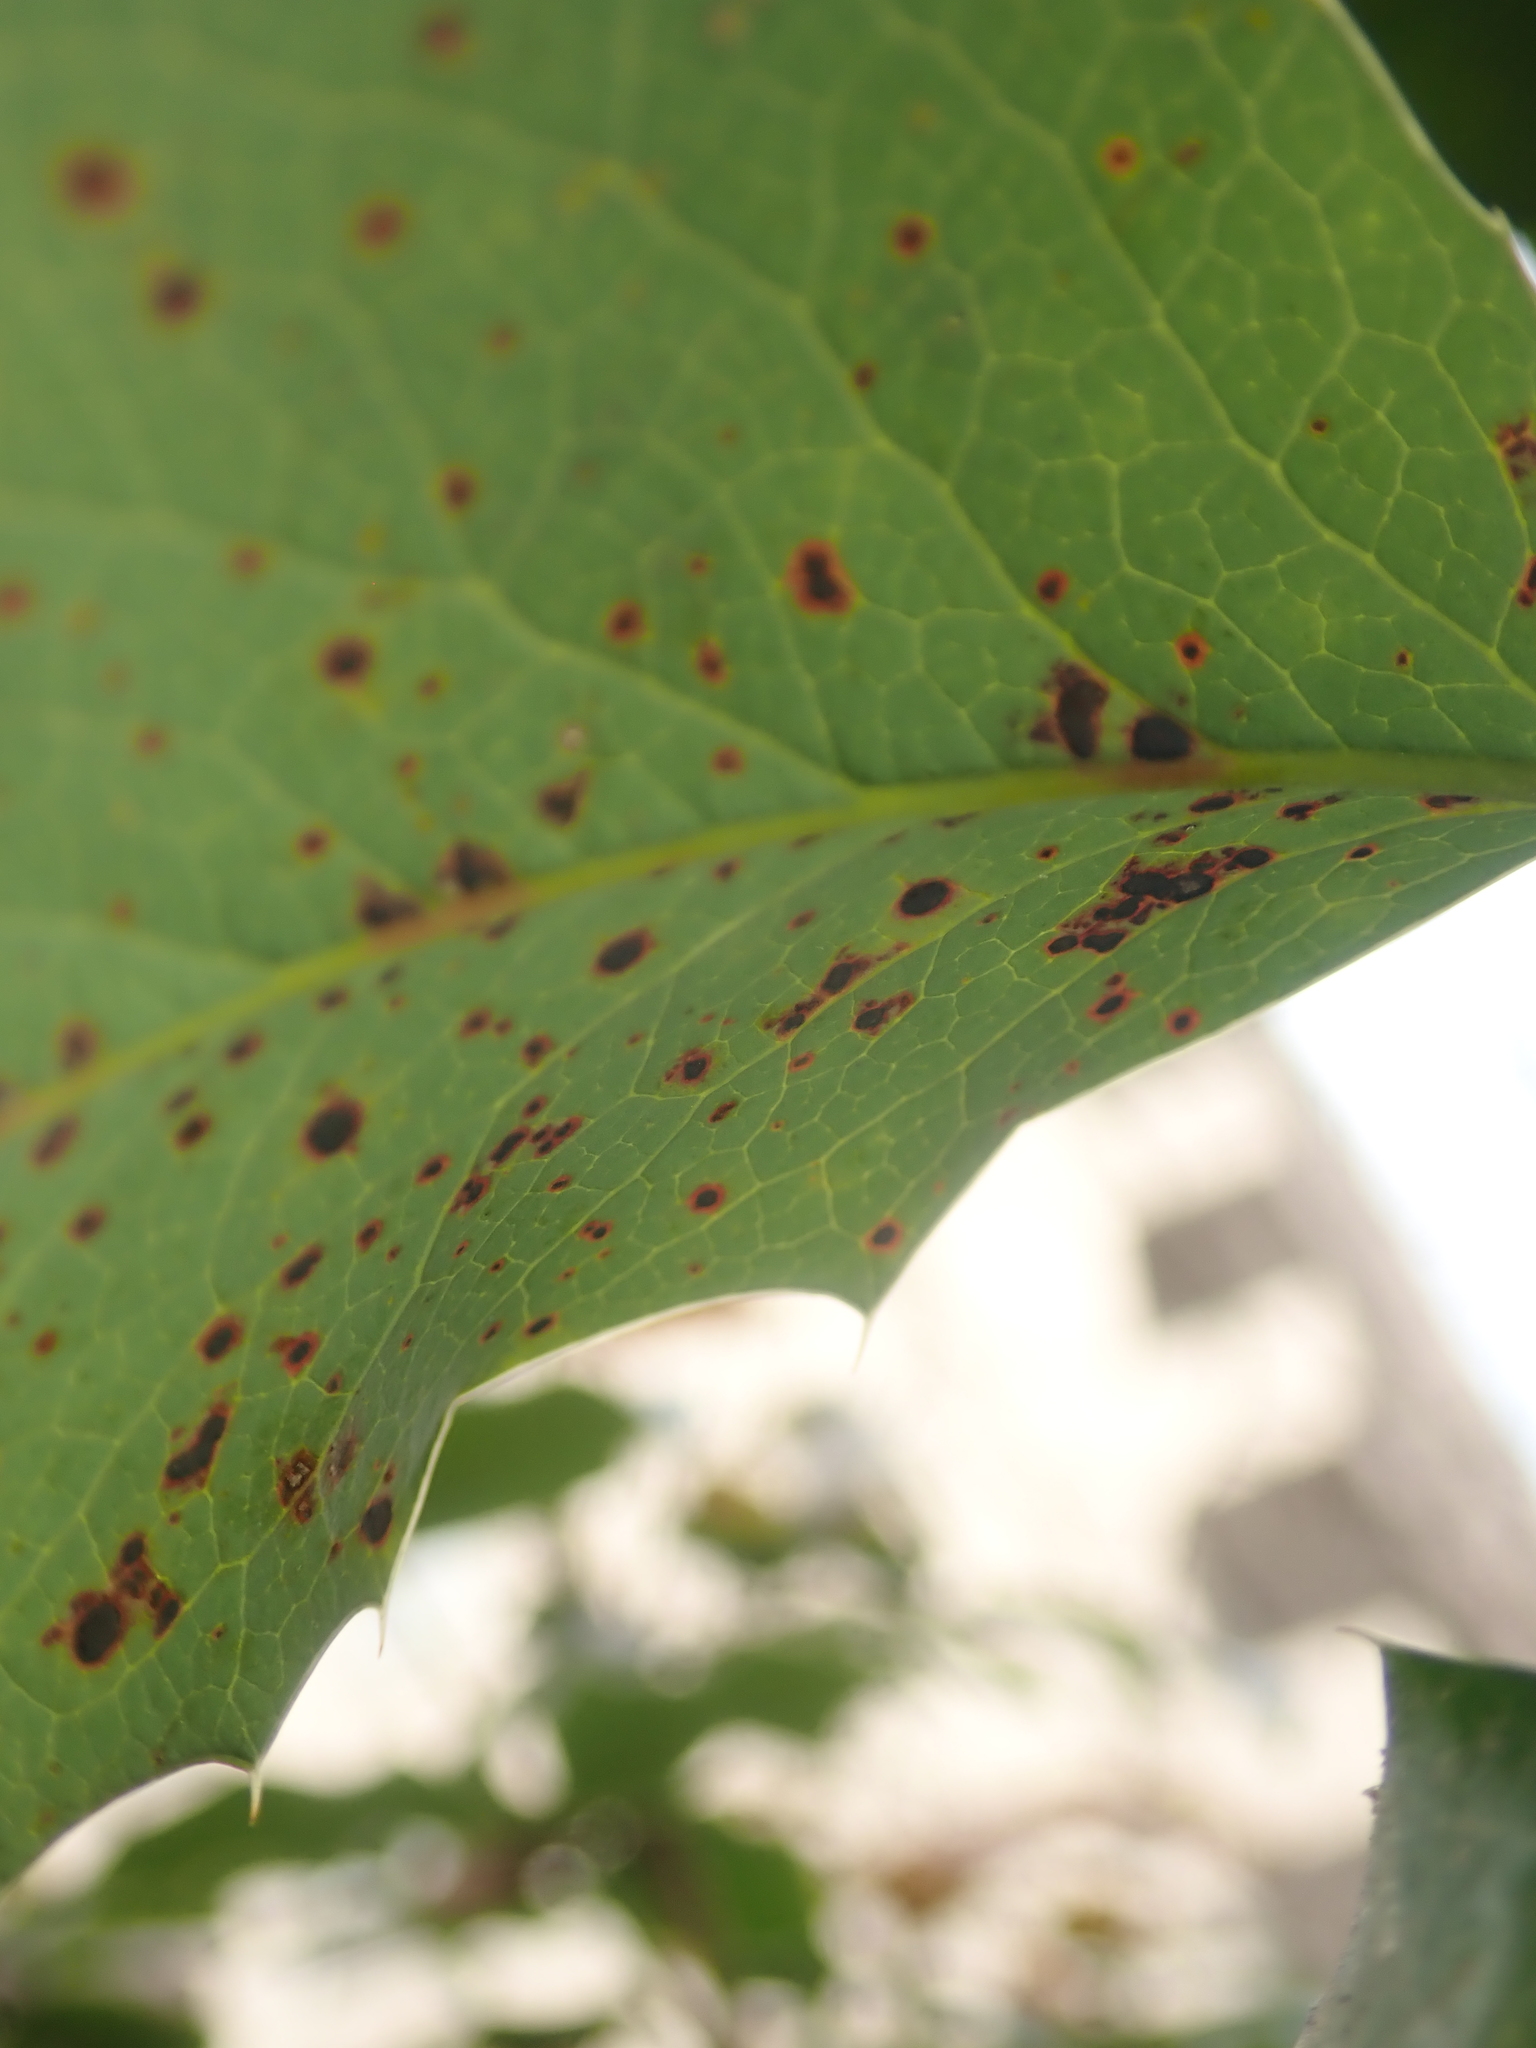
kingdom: Fungi
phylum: Basidiomycota
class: Pucciniomycetes
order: Pucciniales
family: Pucciniaceae
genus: Cumminsiella
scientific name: Cumminsiella mirabilissima
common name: Mahonia rust
